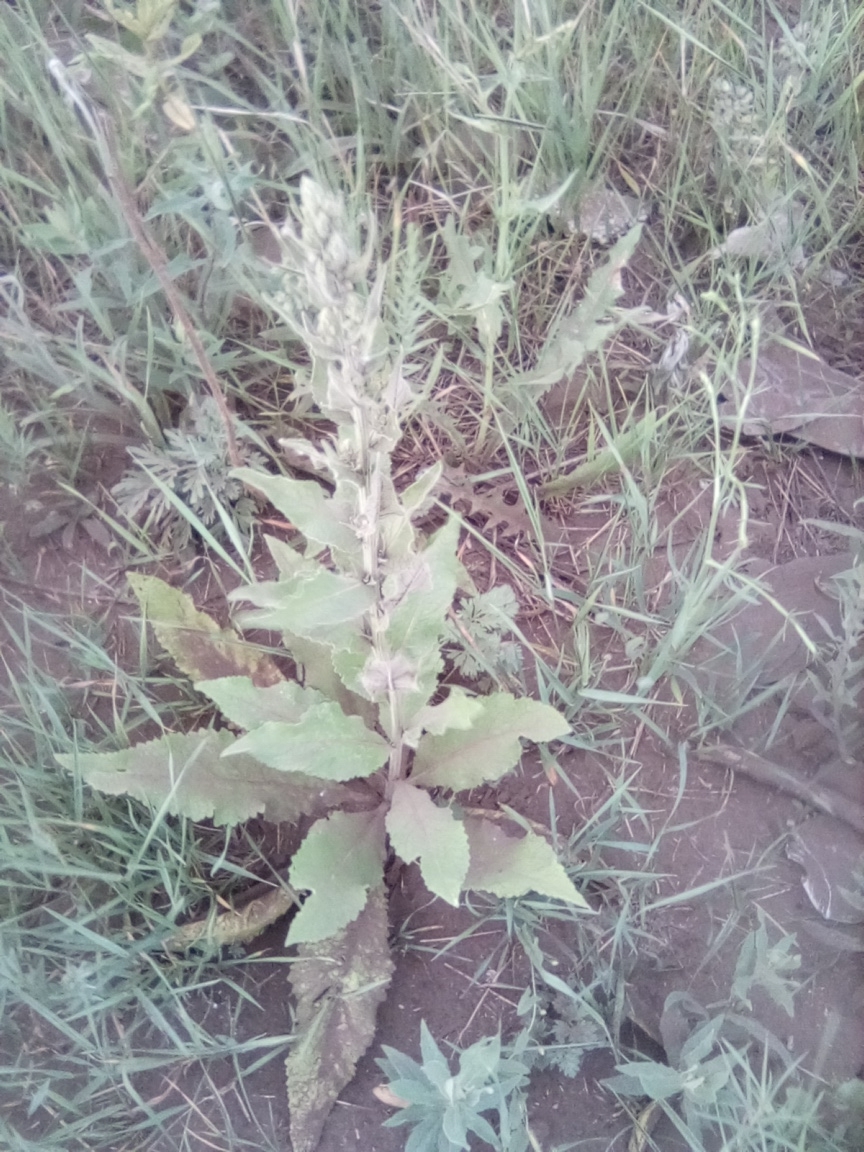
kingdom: Plantae
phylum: Tracheophyta
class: Magnoliopsida
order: Lamiales
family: Scrophulariaceae
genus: Verbascum
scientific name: Verbascum lychnitis
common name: White mullein
